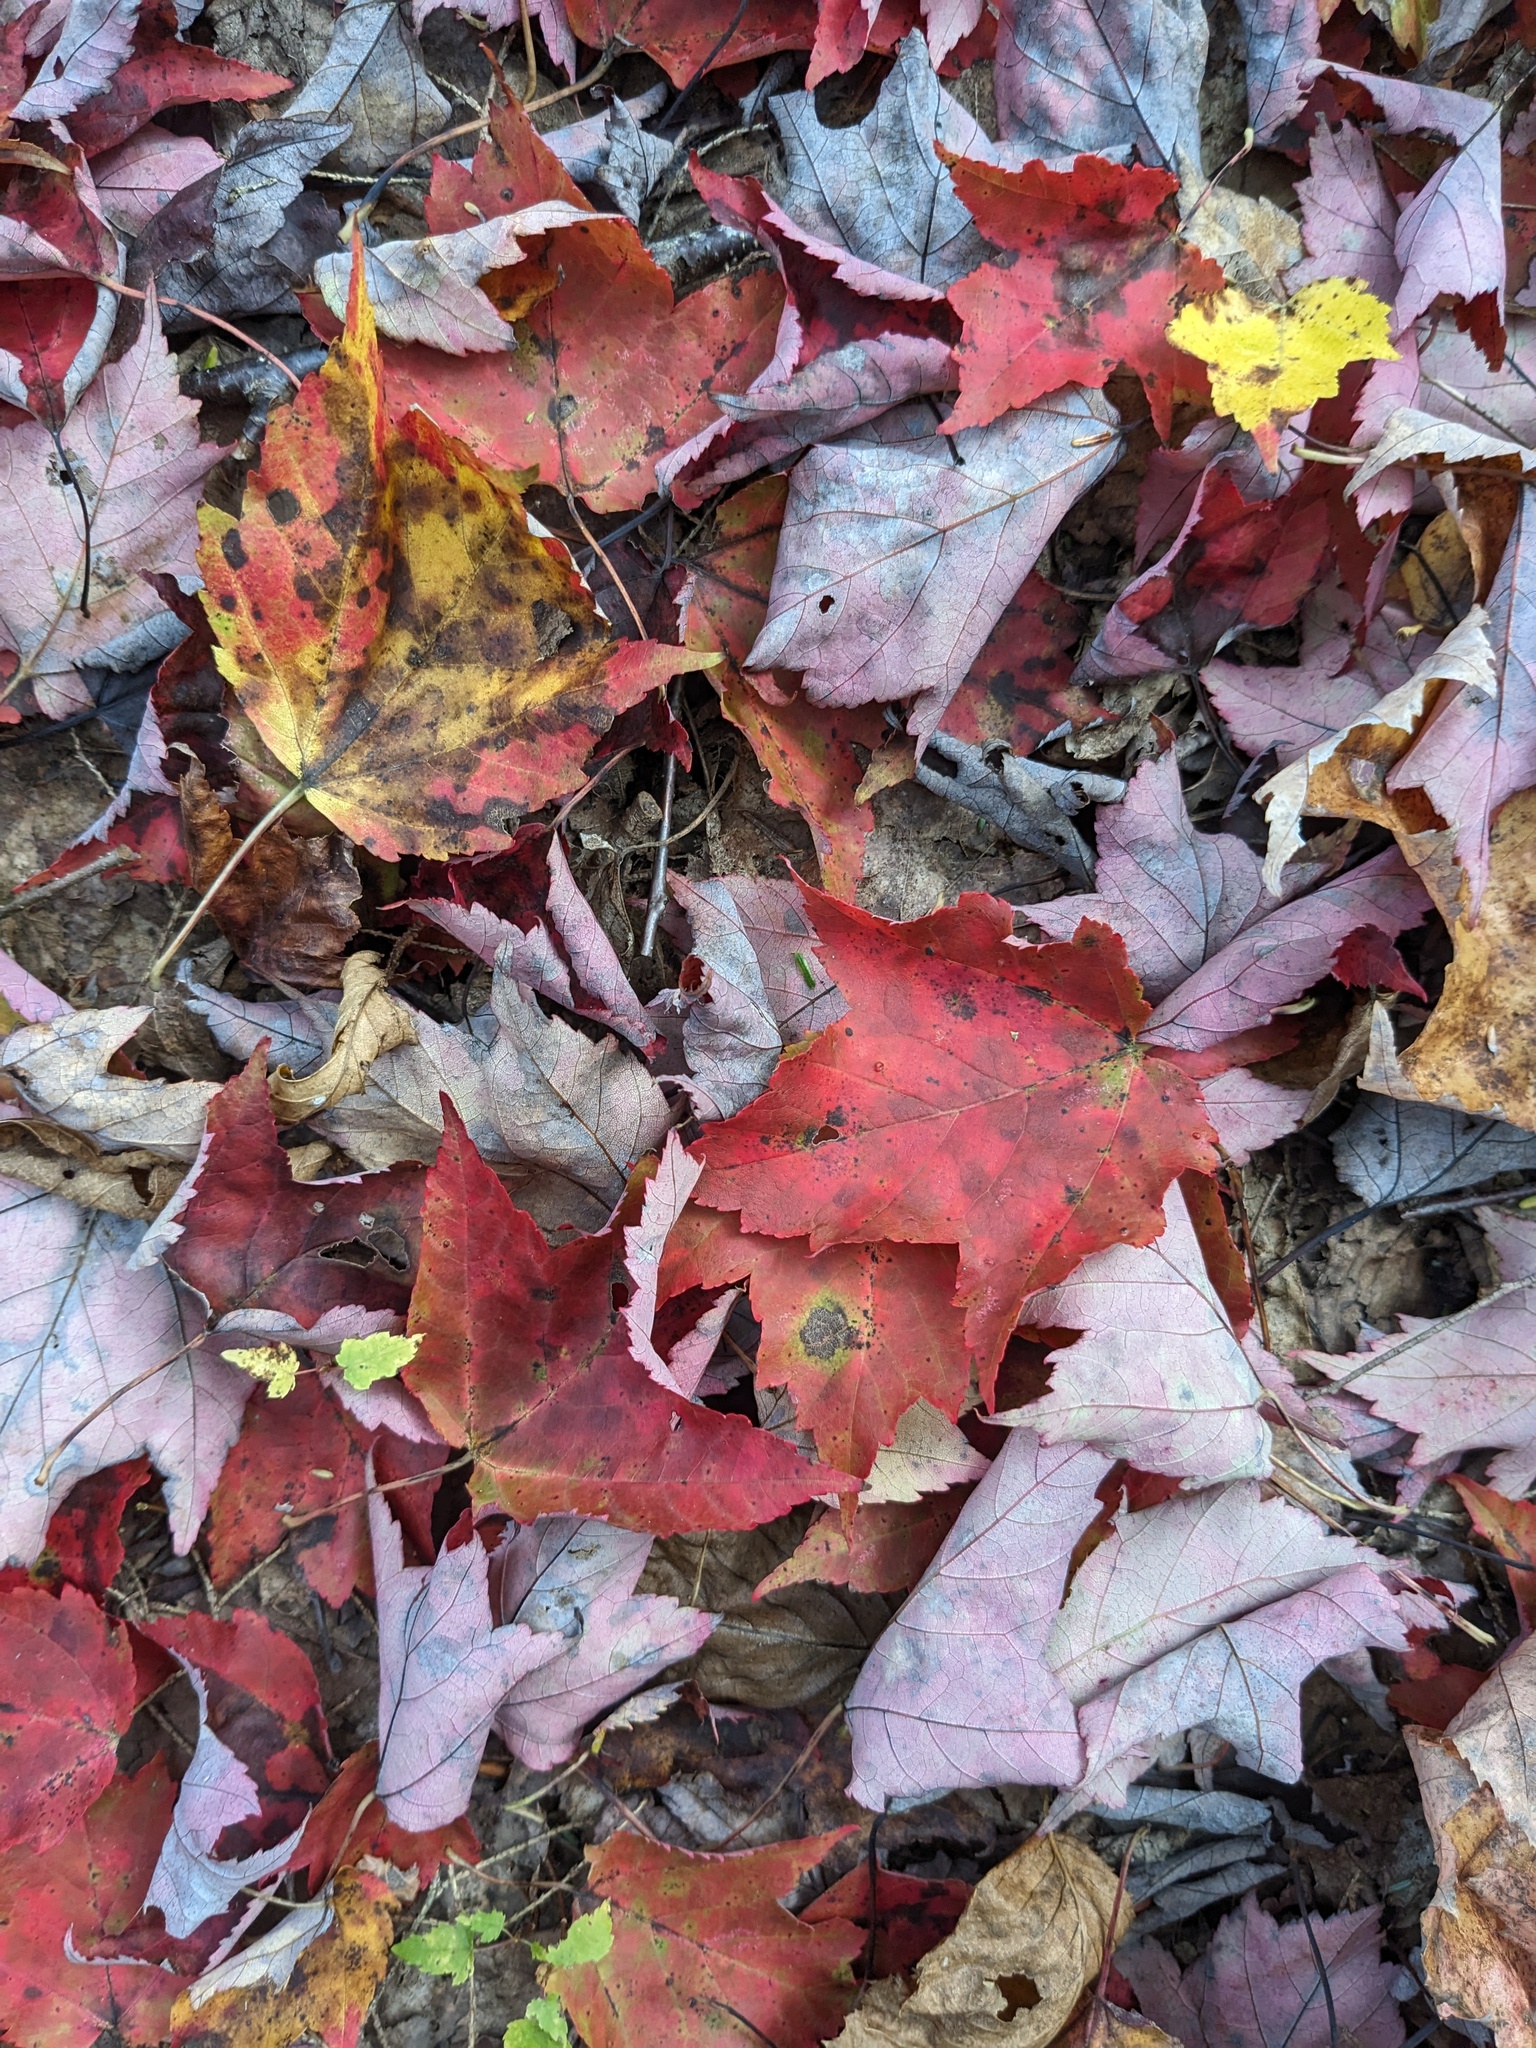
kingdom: Plantae
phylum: Tracheophyta
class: Magnoliopsida
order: Sapindales
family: Sapindaceae
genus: Acer
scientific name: Acer rubrum
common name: Red maple
